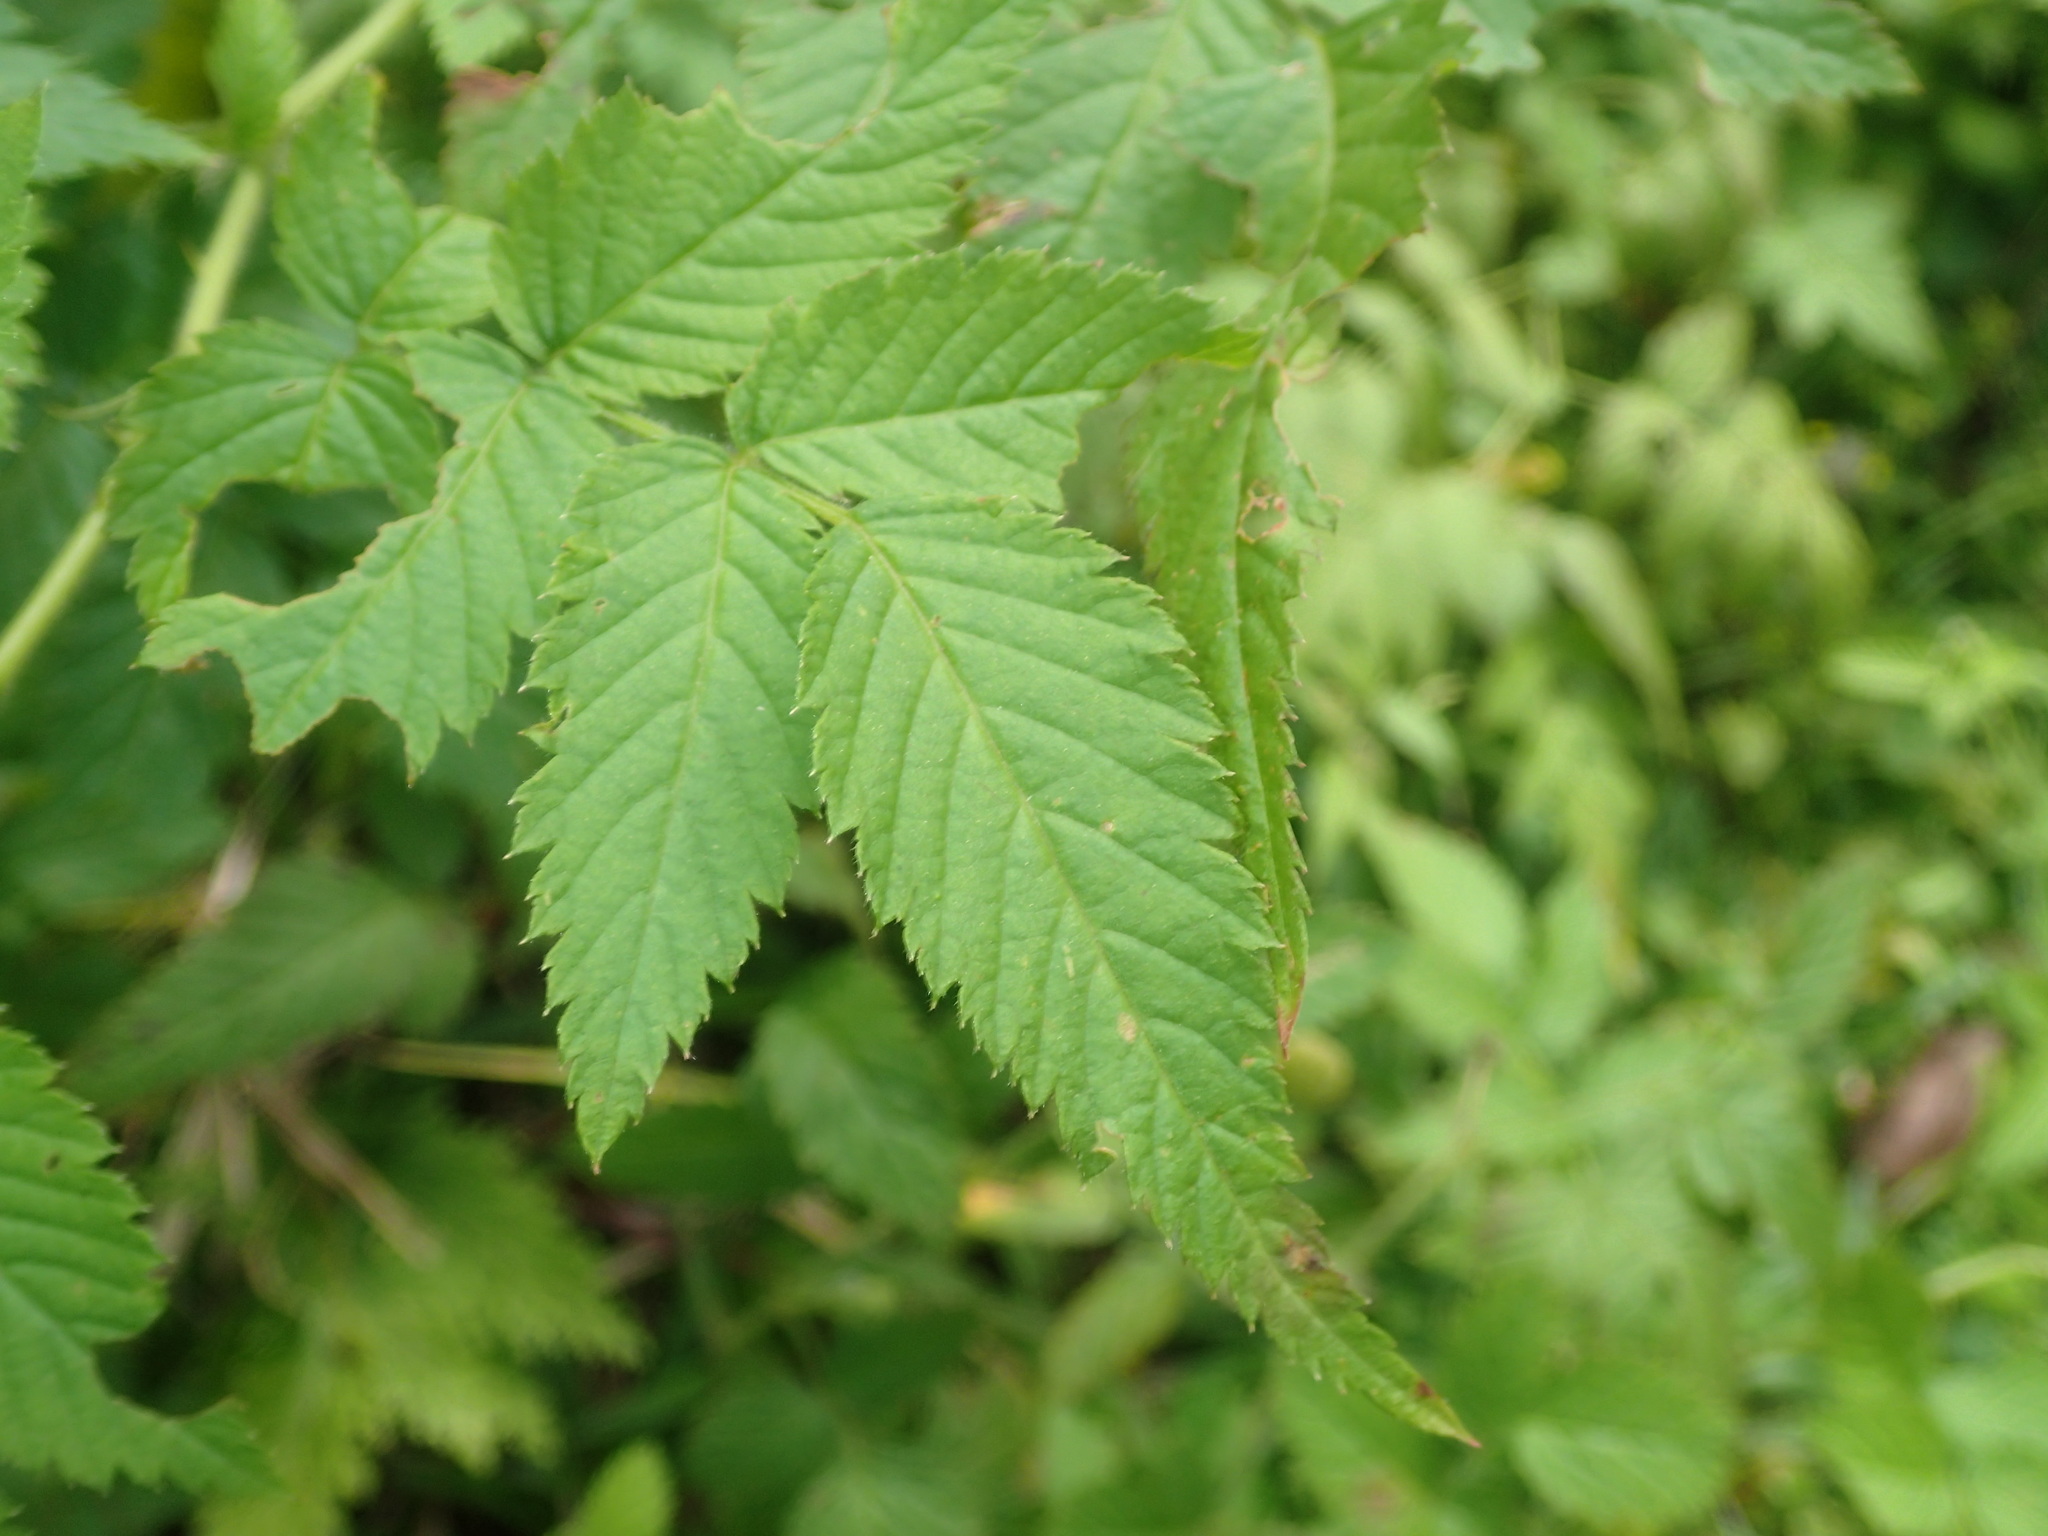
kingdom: Plantae
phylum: Tracheophyta
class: Magnoliopsida
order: Rosales
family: Rosaceae
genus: Rubus
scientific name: Rubus rosifolius
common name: Roseleaf raspberry
